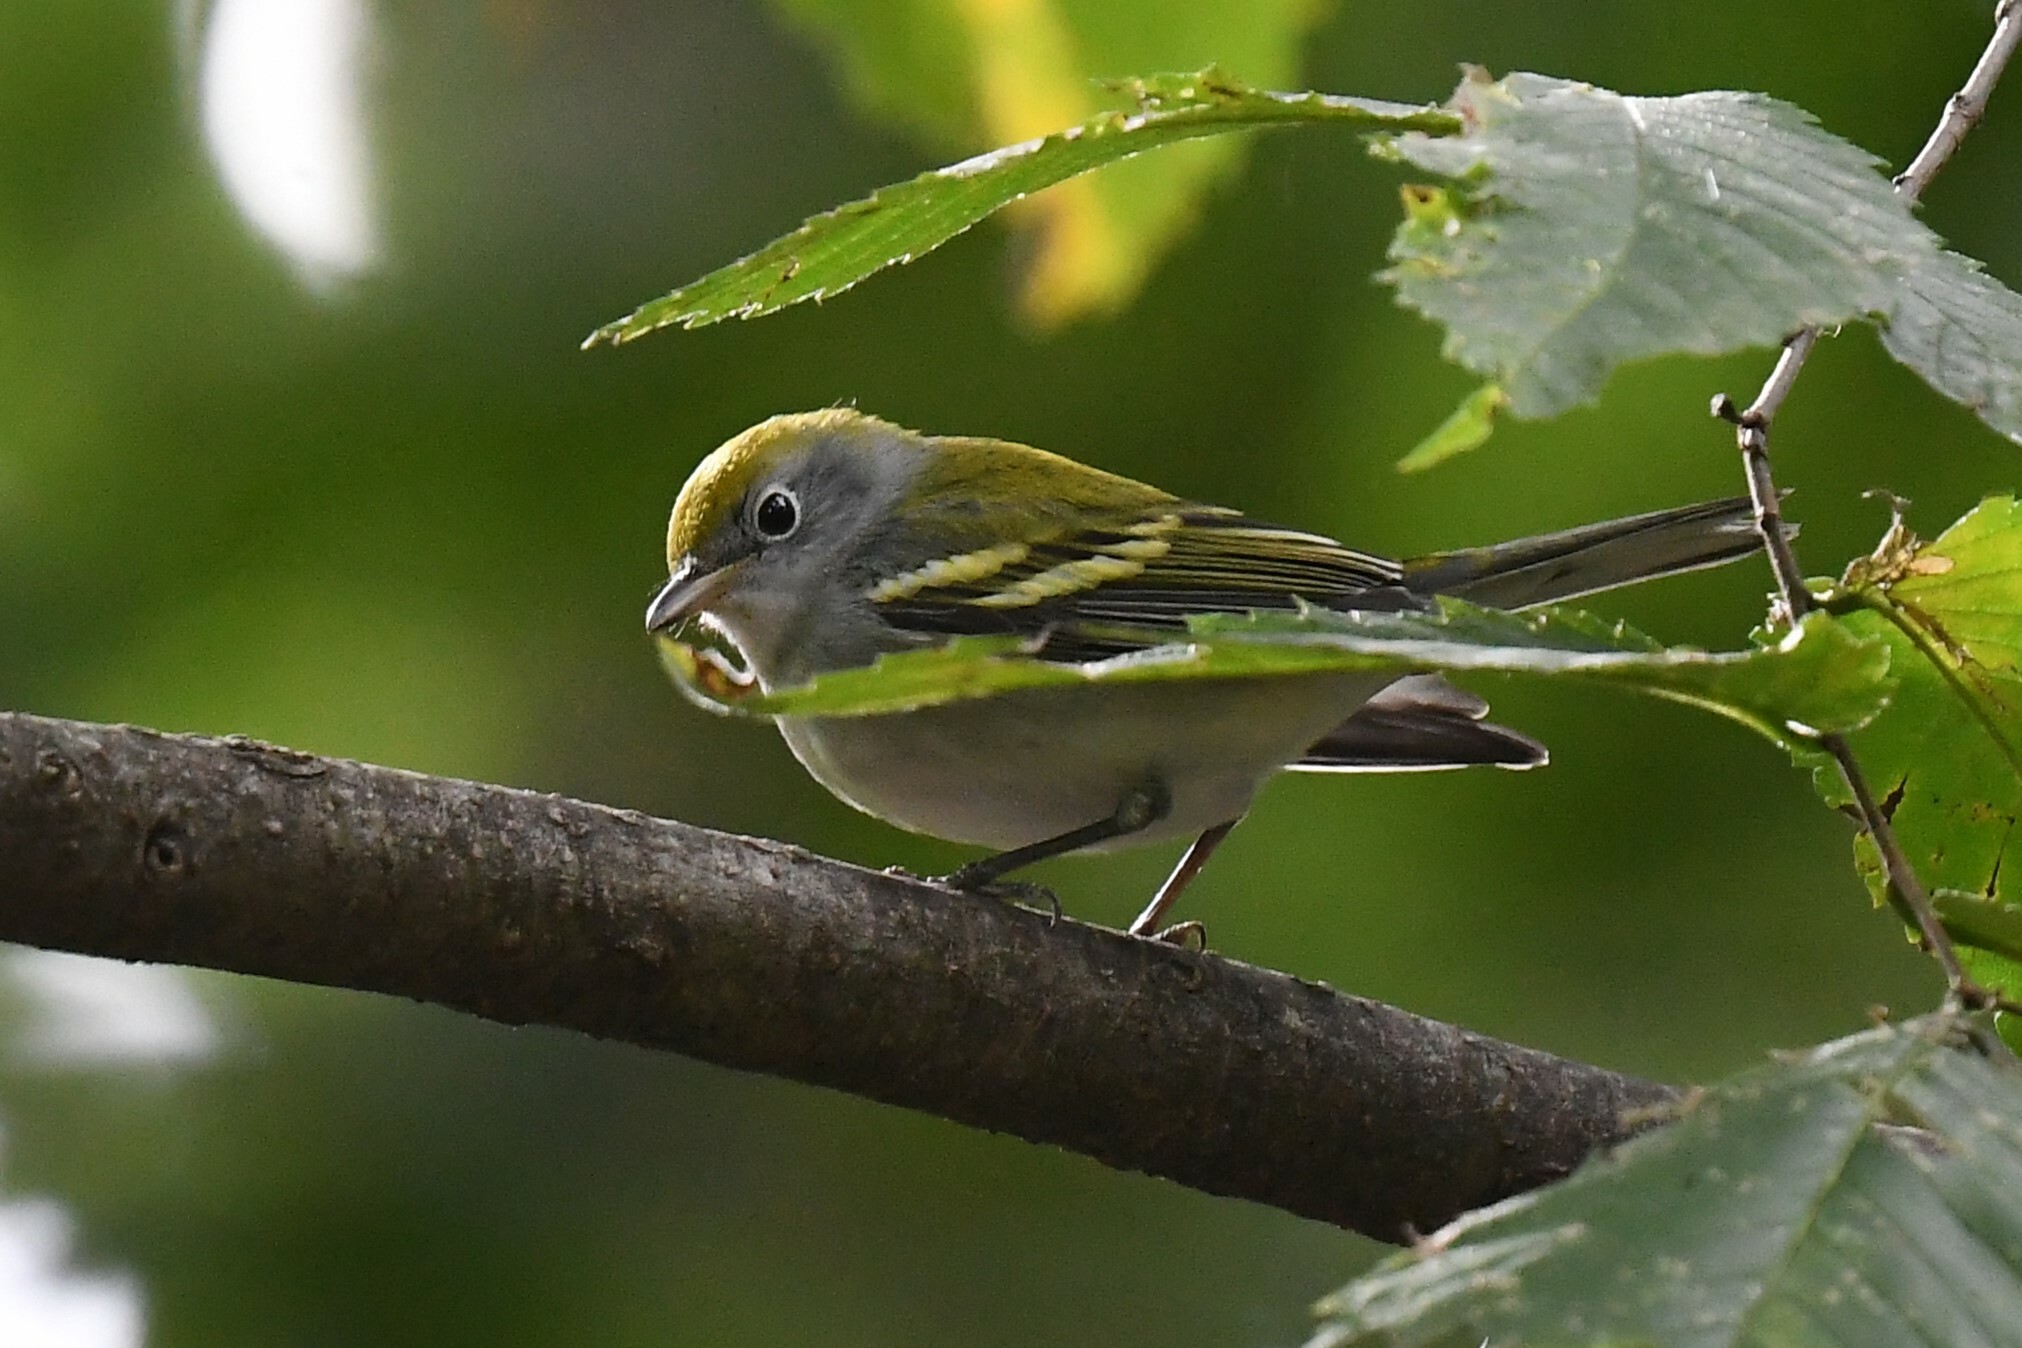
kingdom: Animalia
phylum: Chordata
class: Aves
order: Passeriformes
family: Parulidae
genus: Setophaga
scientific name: Setophaga pensylvanica
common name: Chestnut-sided warbler
